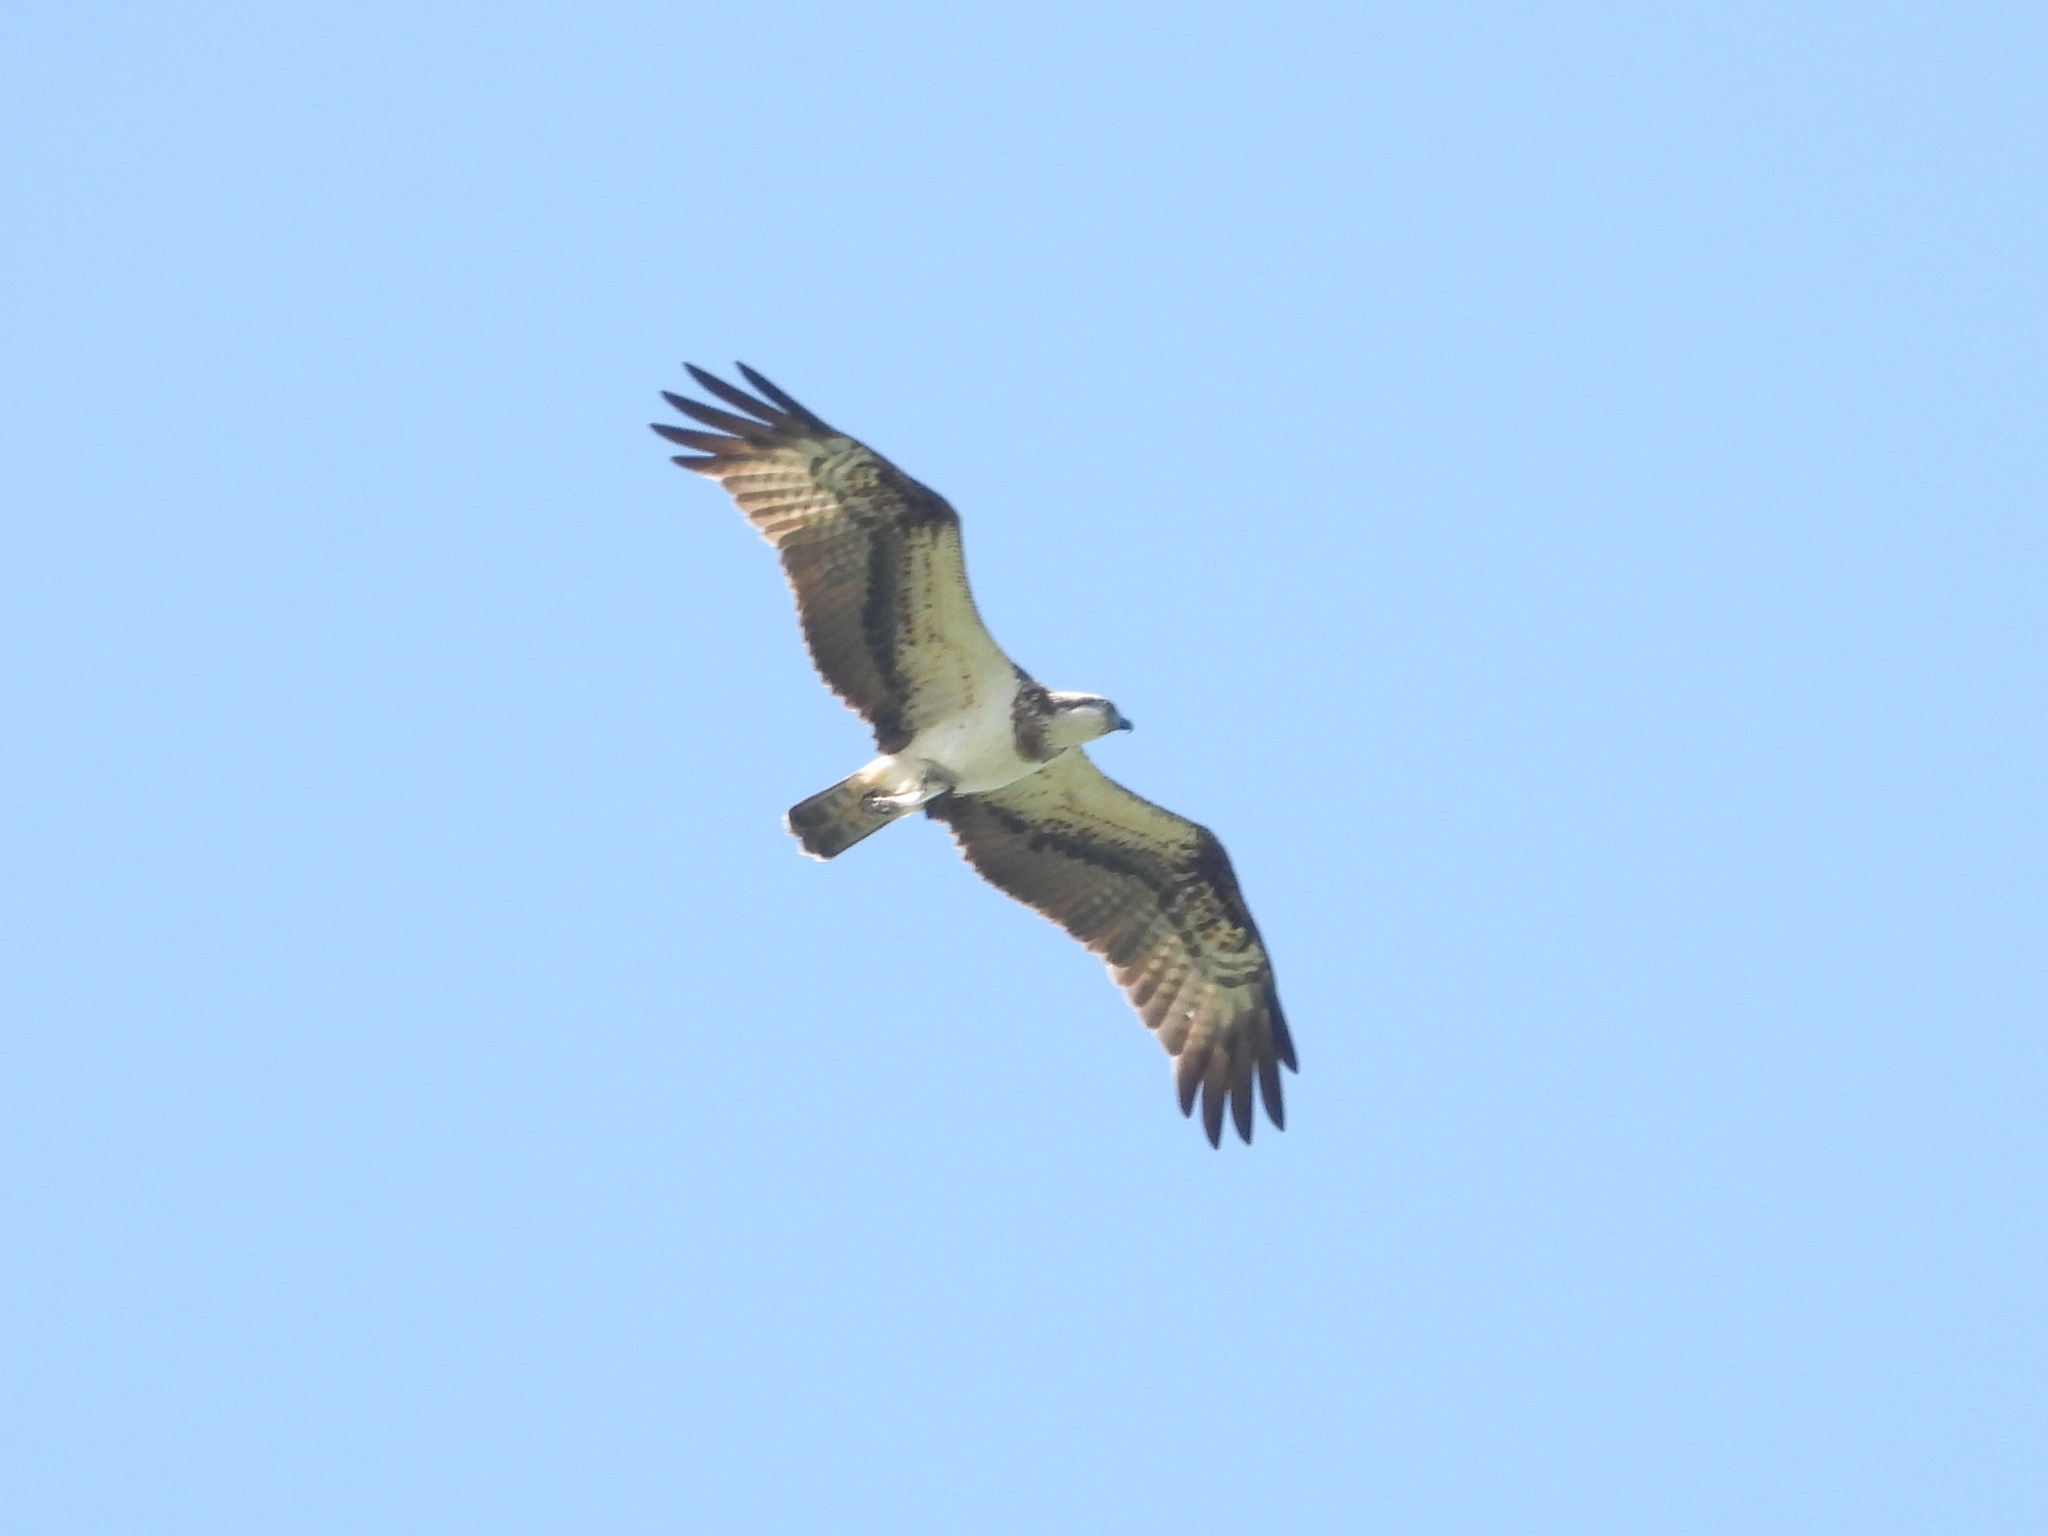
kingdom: Animalia
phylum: Chordata
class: Aves
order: Accipitriformes
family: Pandionidae
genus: Pandion
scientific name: Pandion haliaetus
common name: Osprey
